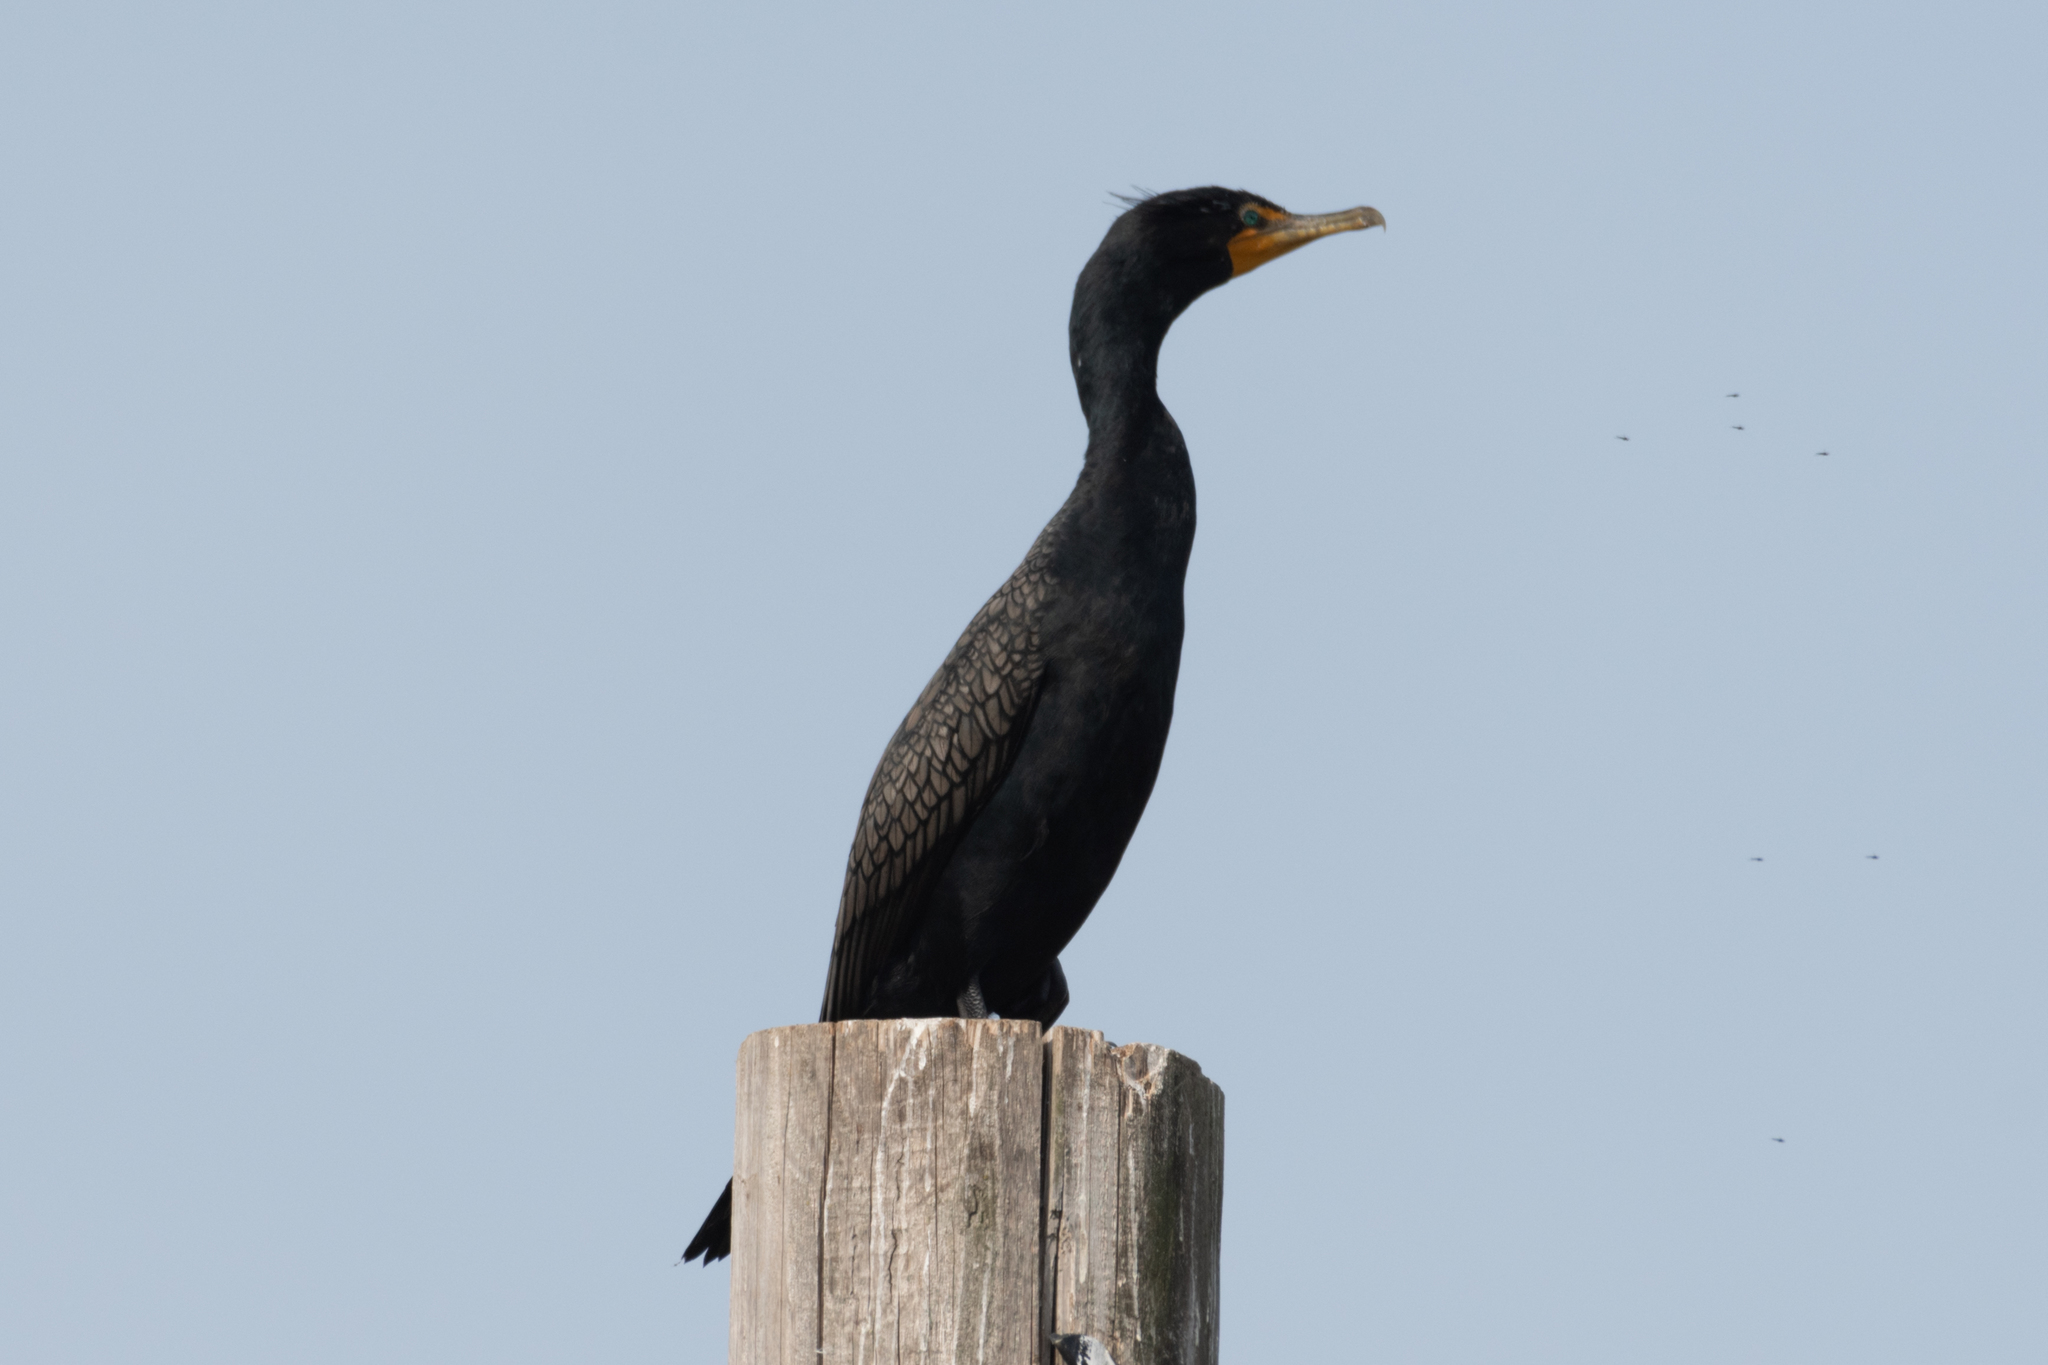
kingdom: Animalia
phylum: Chordata
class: Aves
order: Suliformes
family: Phalacrocoracidae
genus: Phalacrocorax
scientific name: Phalacrocorax auritus
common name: Double-crested cormorant
